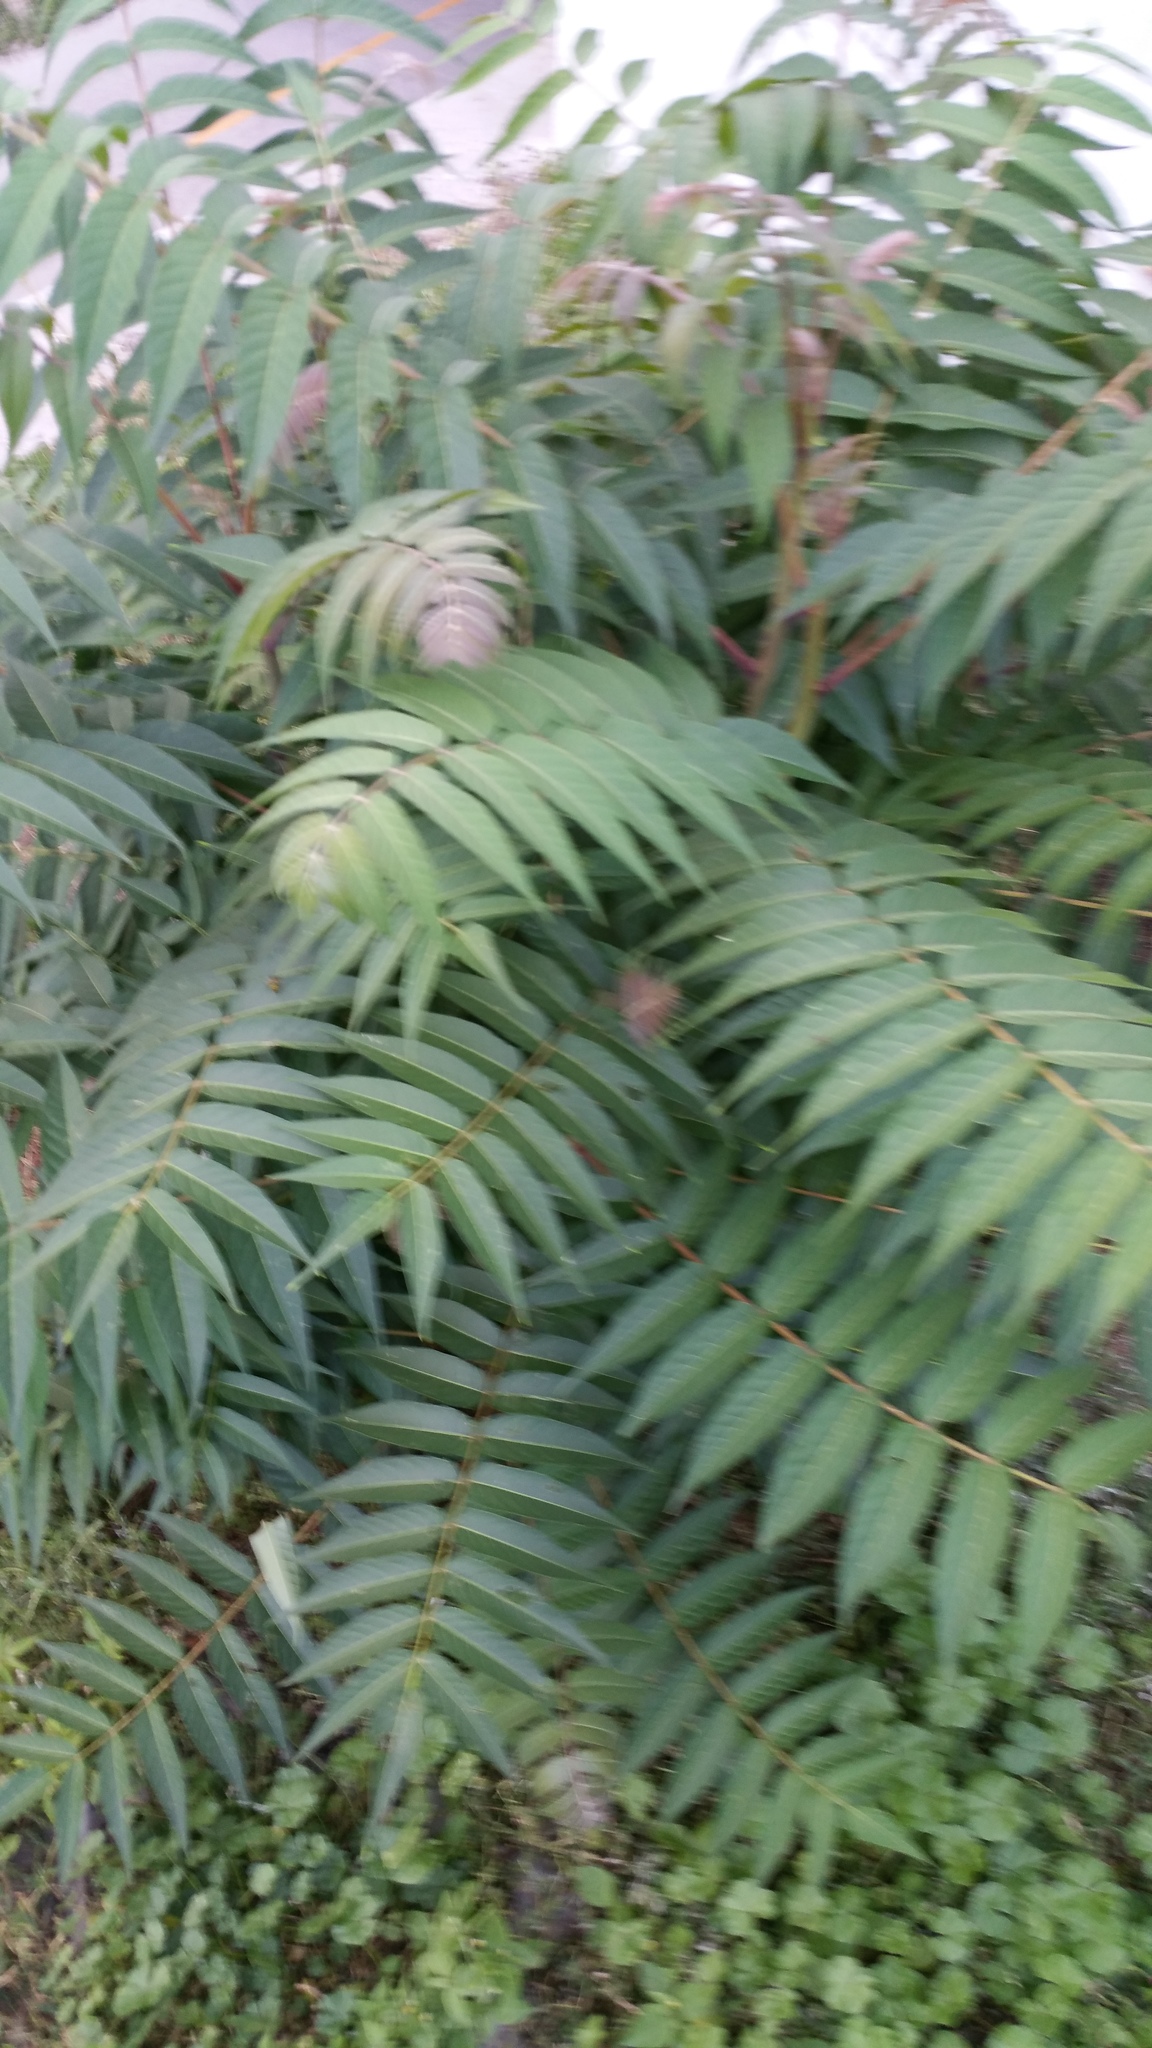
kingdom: Plantae
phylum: Tracheophyta
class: Magnoliopsida
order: Sapindales
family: Simaroubaceae
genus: Ailanthus
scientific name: Ailanthus altissima
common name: Tree-of-heaven
